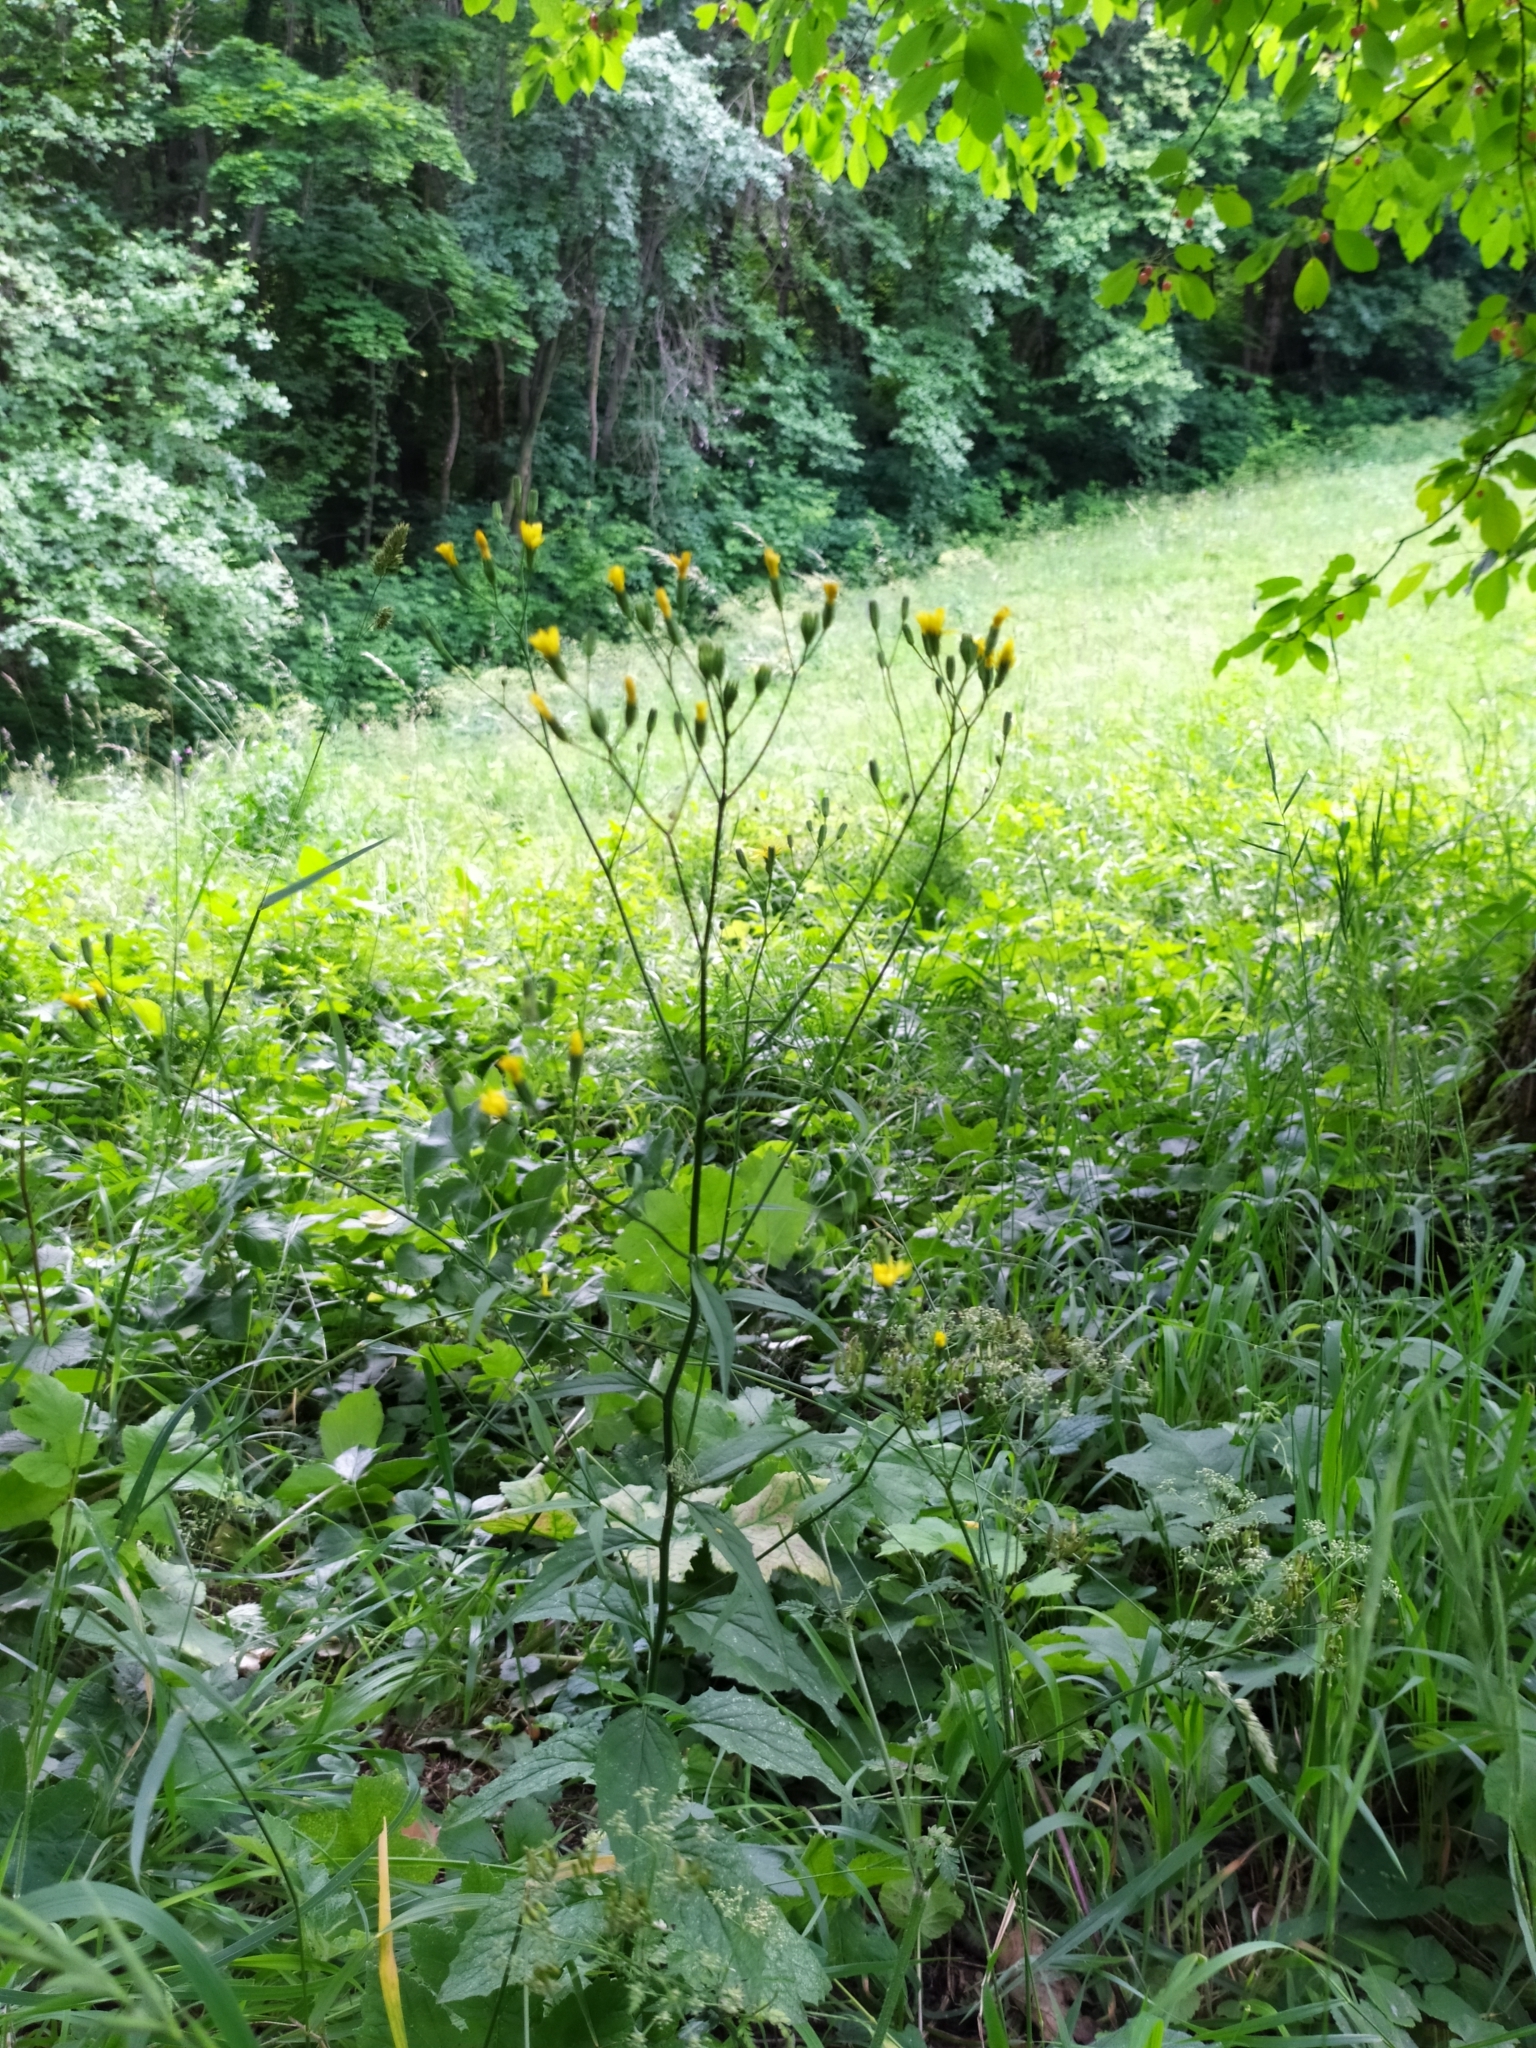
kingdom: Plantae
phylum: Tracheophyta
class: Magnoliopsida
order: Asterales
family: Asteraceae
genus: Lapsana
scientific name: Lapsana communis
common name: Nipplewort
